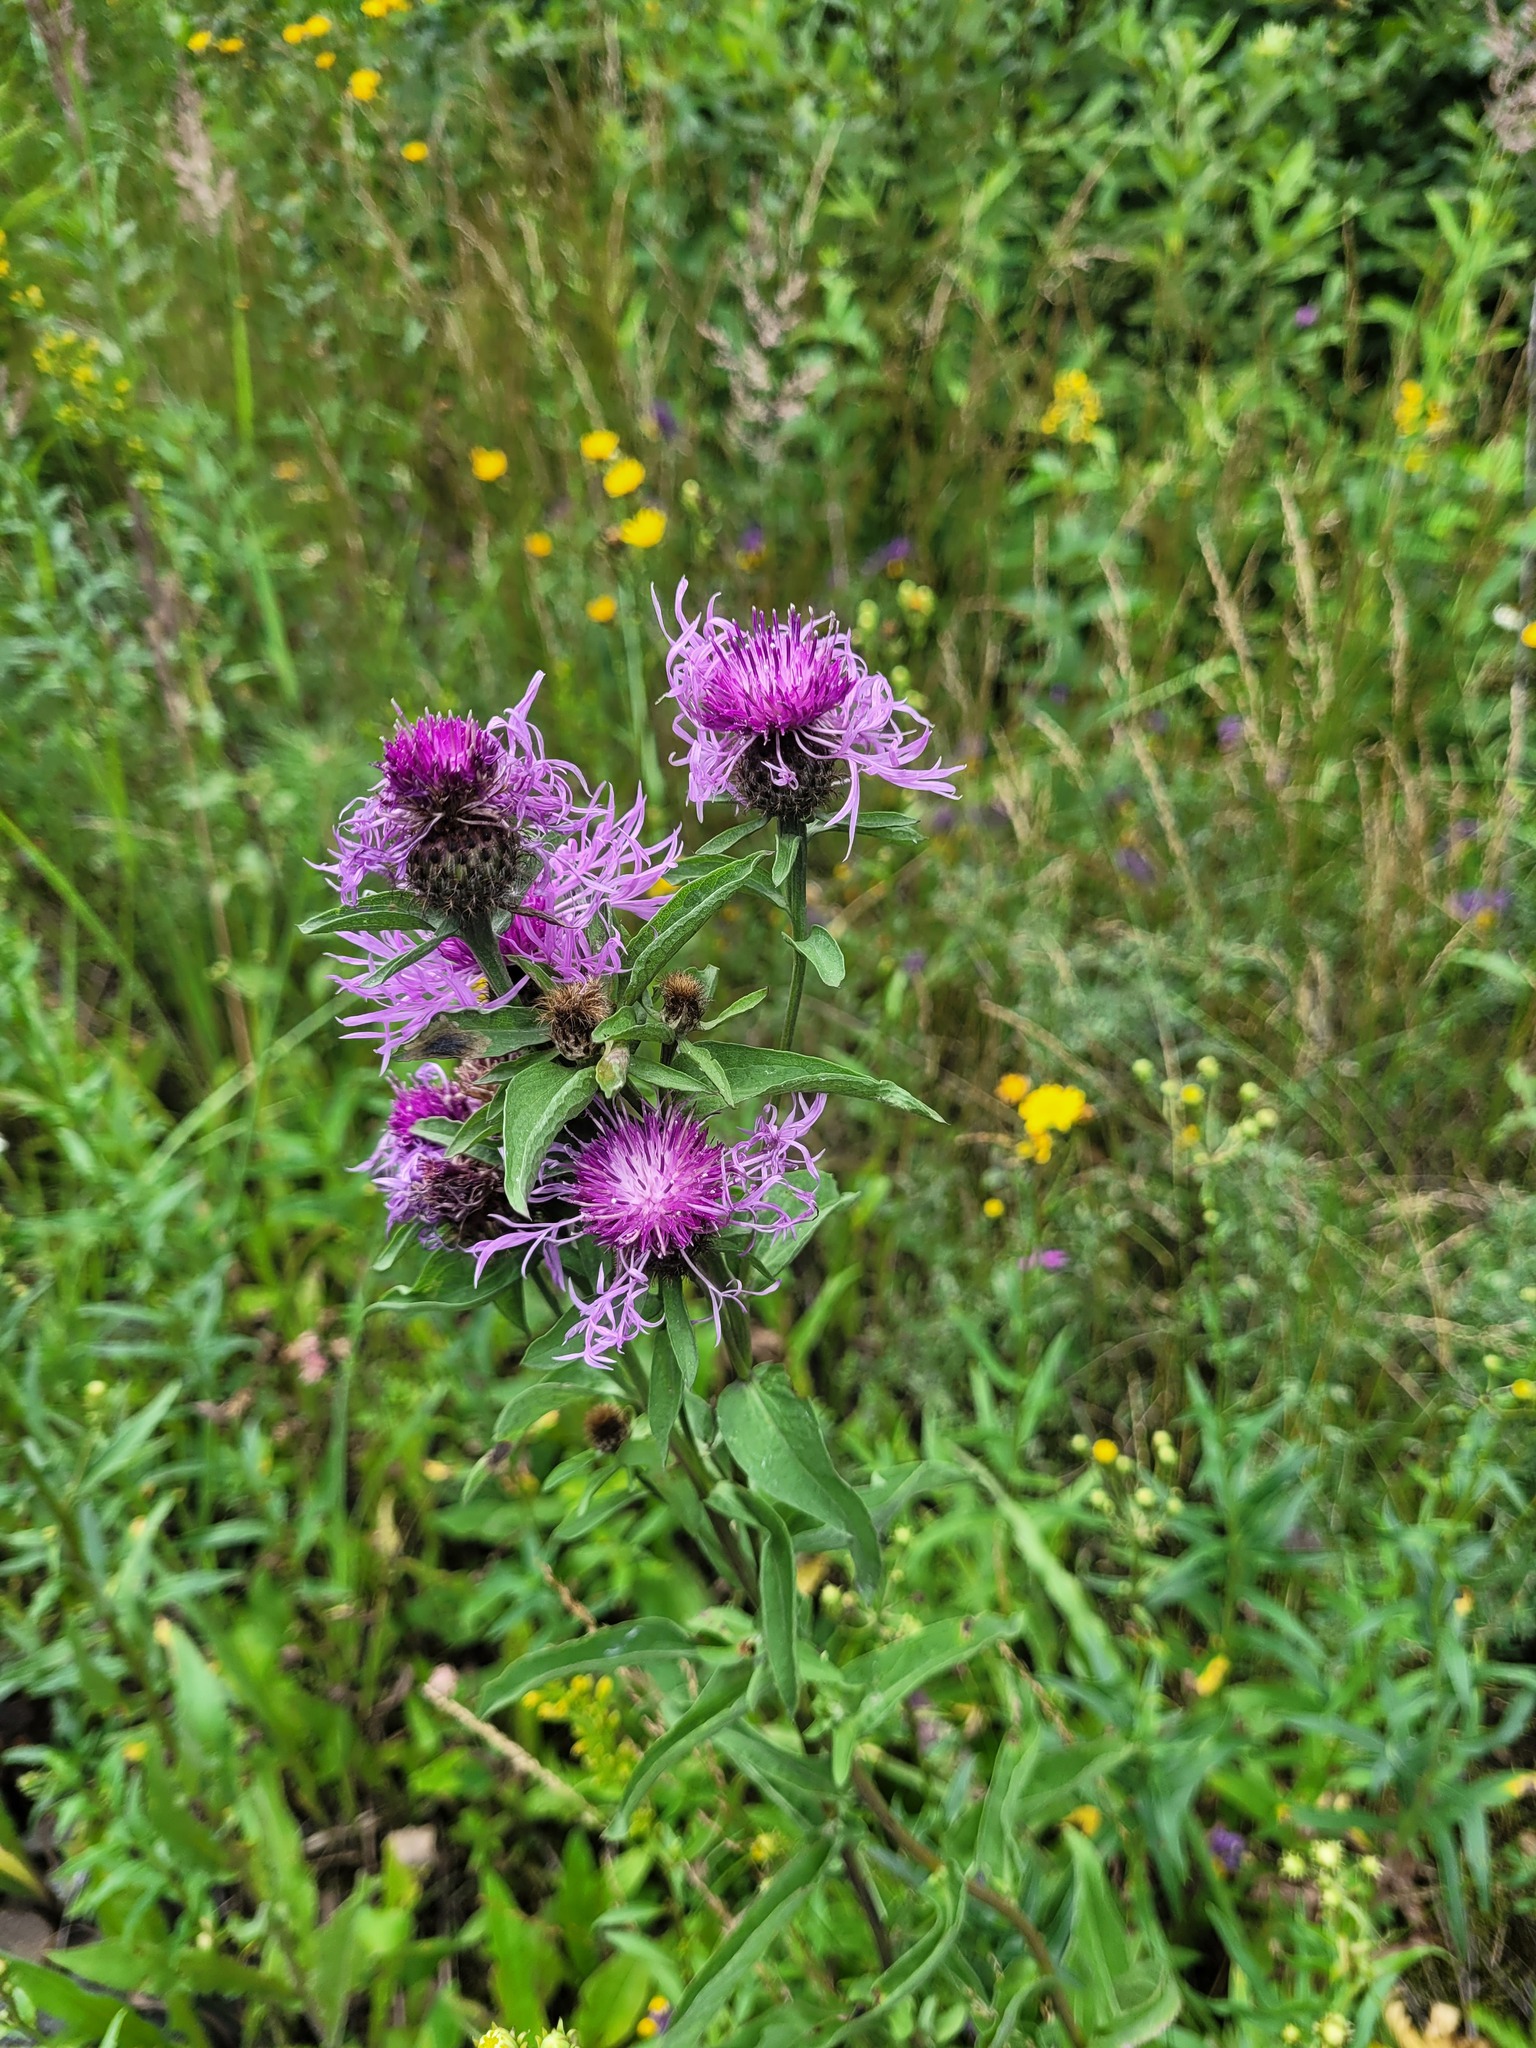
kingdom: Plantae
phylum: Tracheophyta
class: Magnoliopsida
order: Asterales
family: Asteraceae
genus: Centaurea
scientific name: Centaurea phrygia
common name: Wig knapweed
